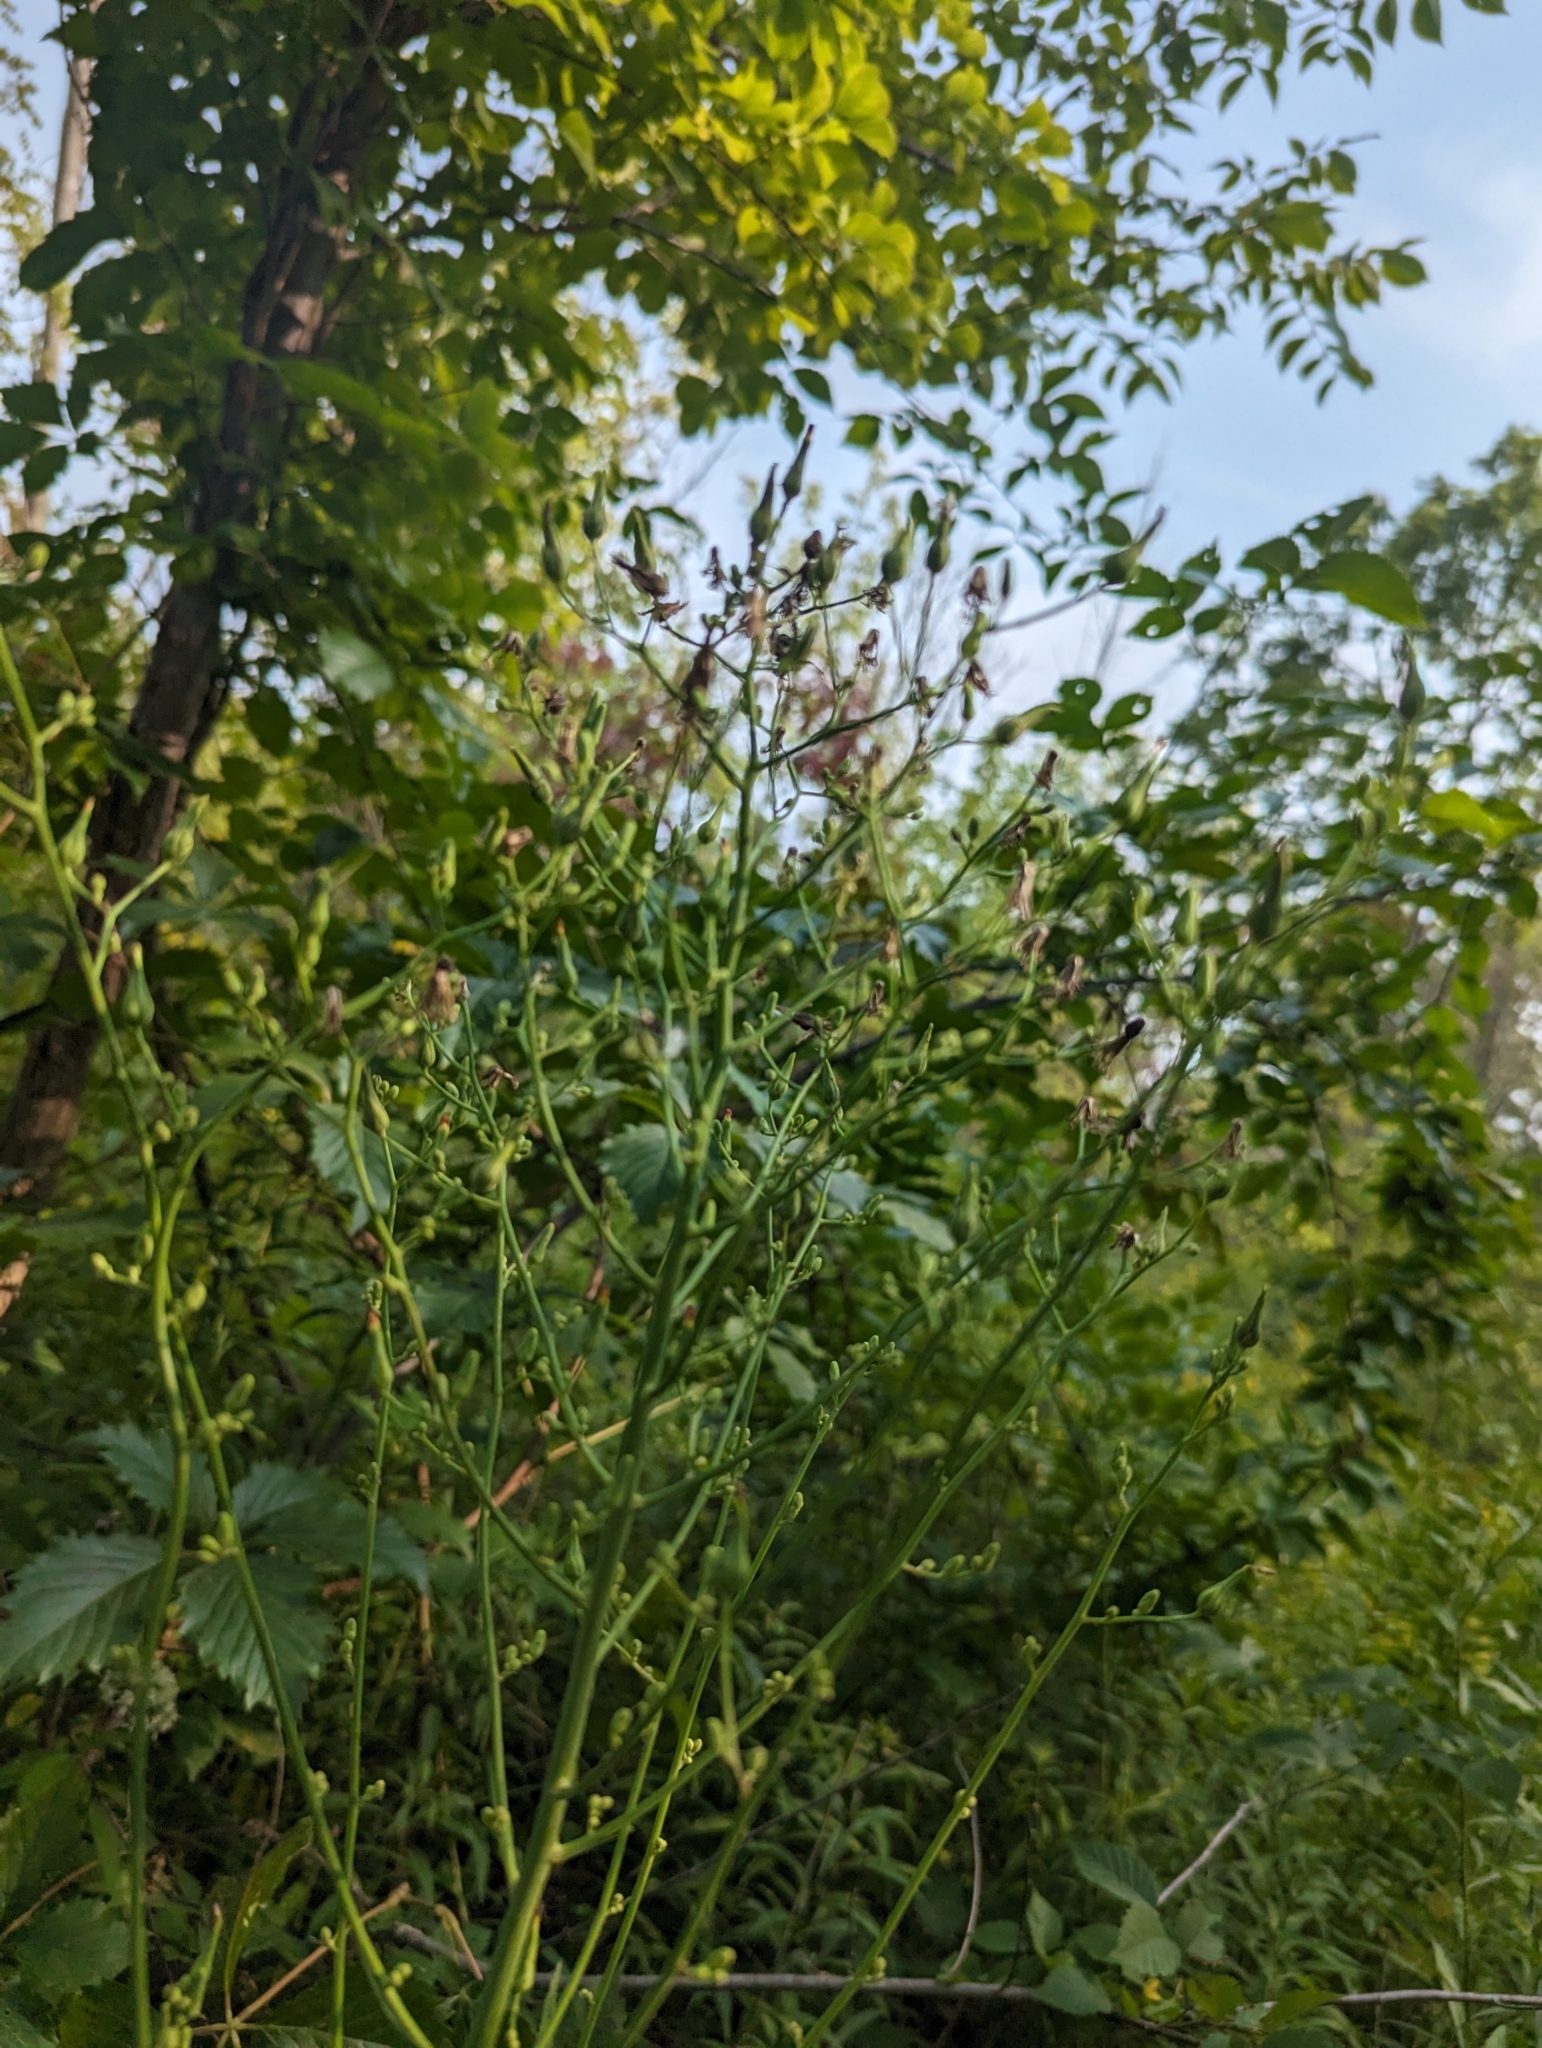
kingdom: Plantae
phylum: Tracheophyta
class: Magnoliopsida
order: Asterales
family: Asteraceae
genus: Lactuca
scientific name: Lactuca canadensis
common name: Canada lettuce
